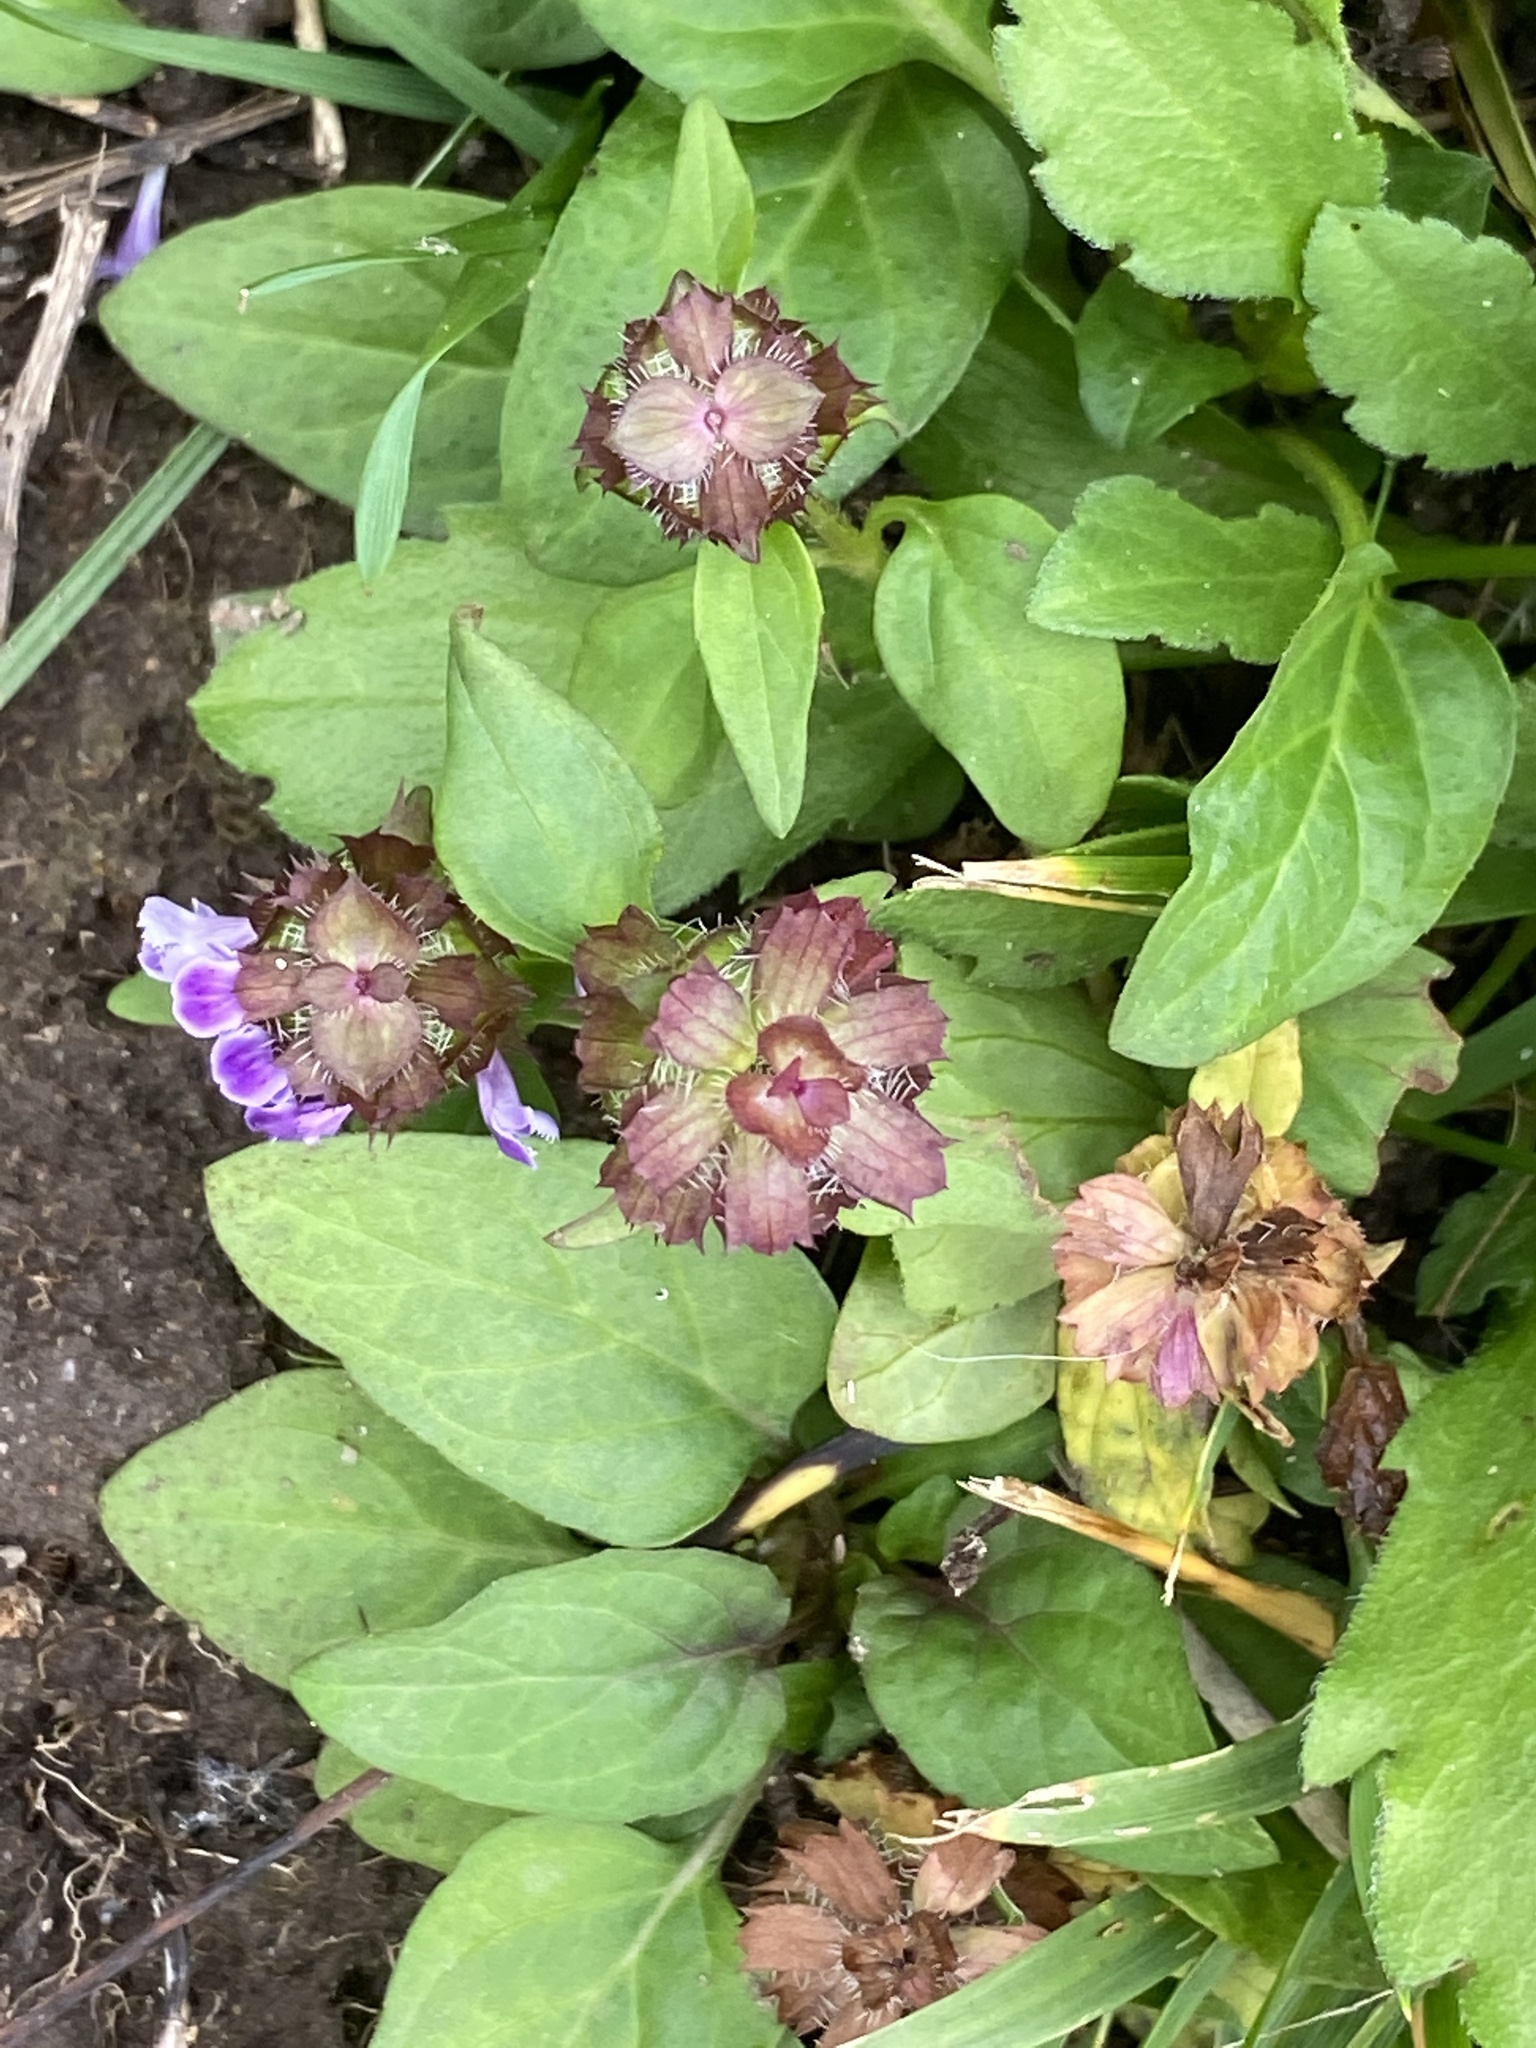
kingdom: Plantae
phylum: Tracheophyta
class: Magnoliopsida
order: Lamiales
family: Lamiaceae
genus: Prunella
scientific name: Prunella vulgaris
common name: Heal-all
